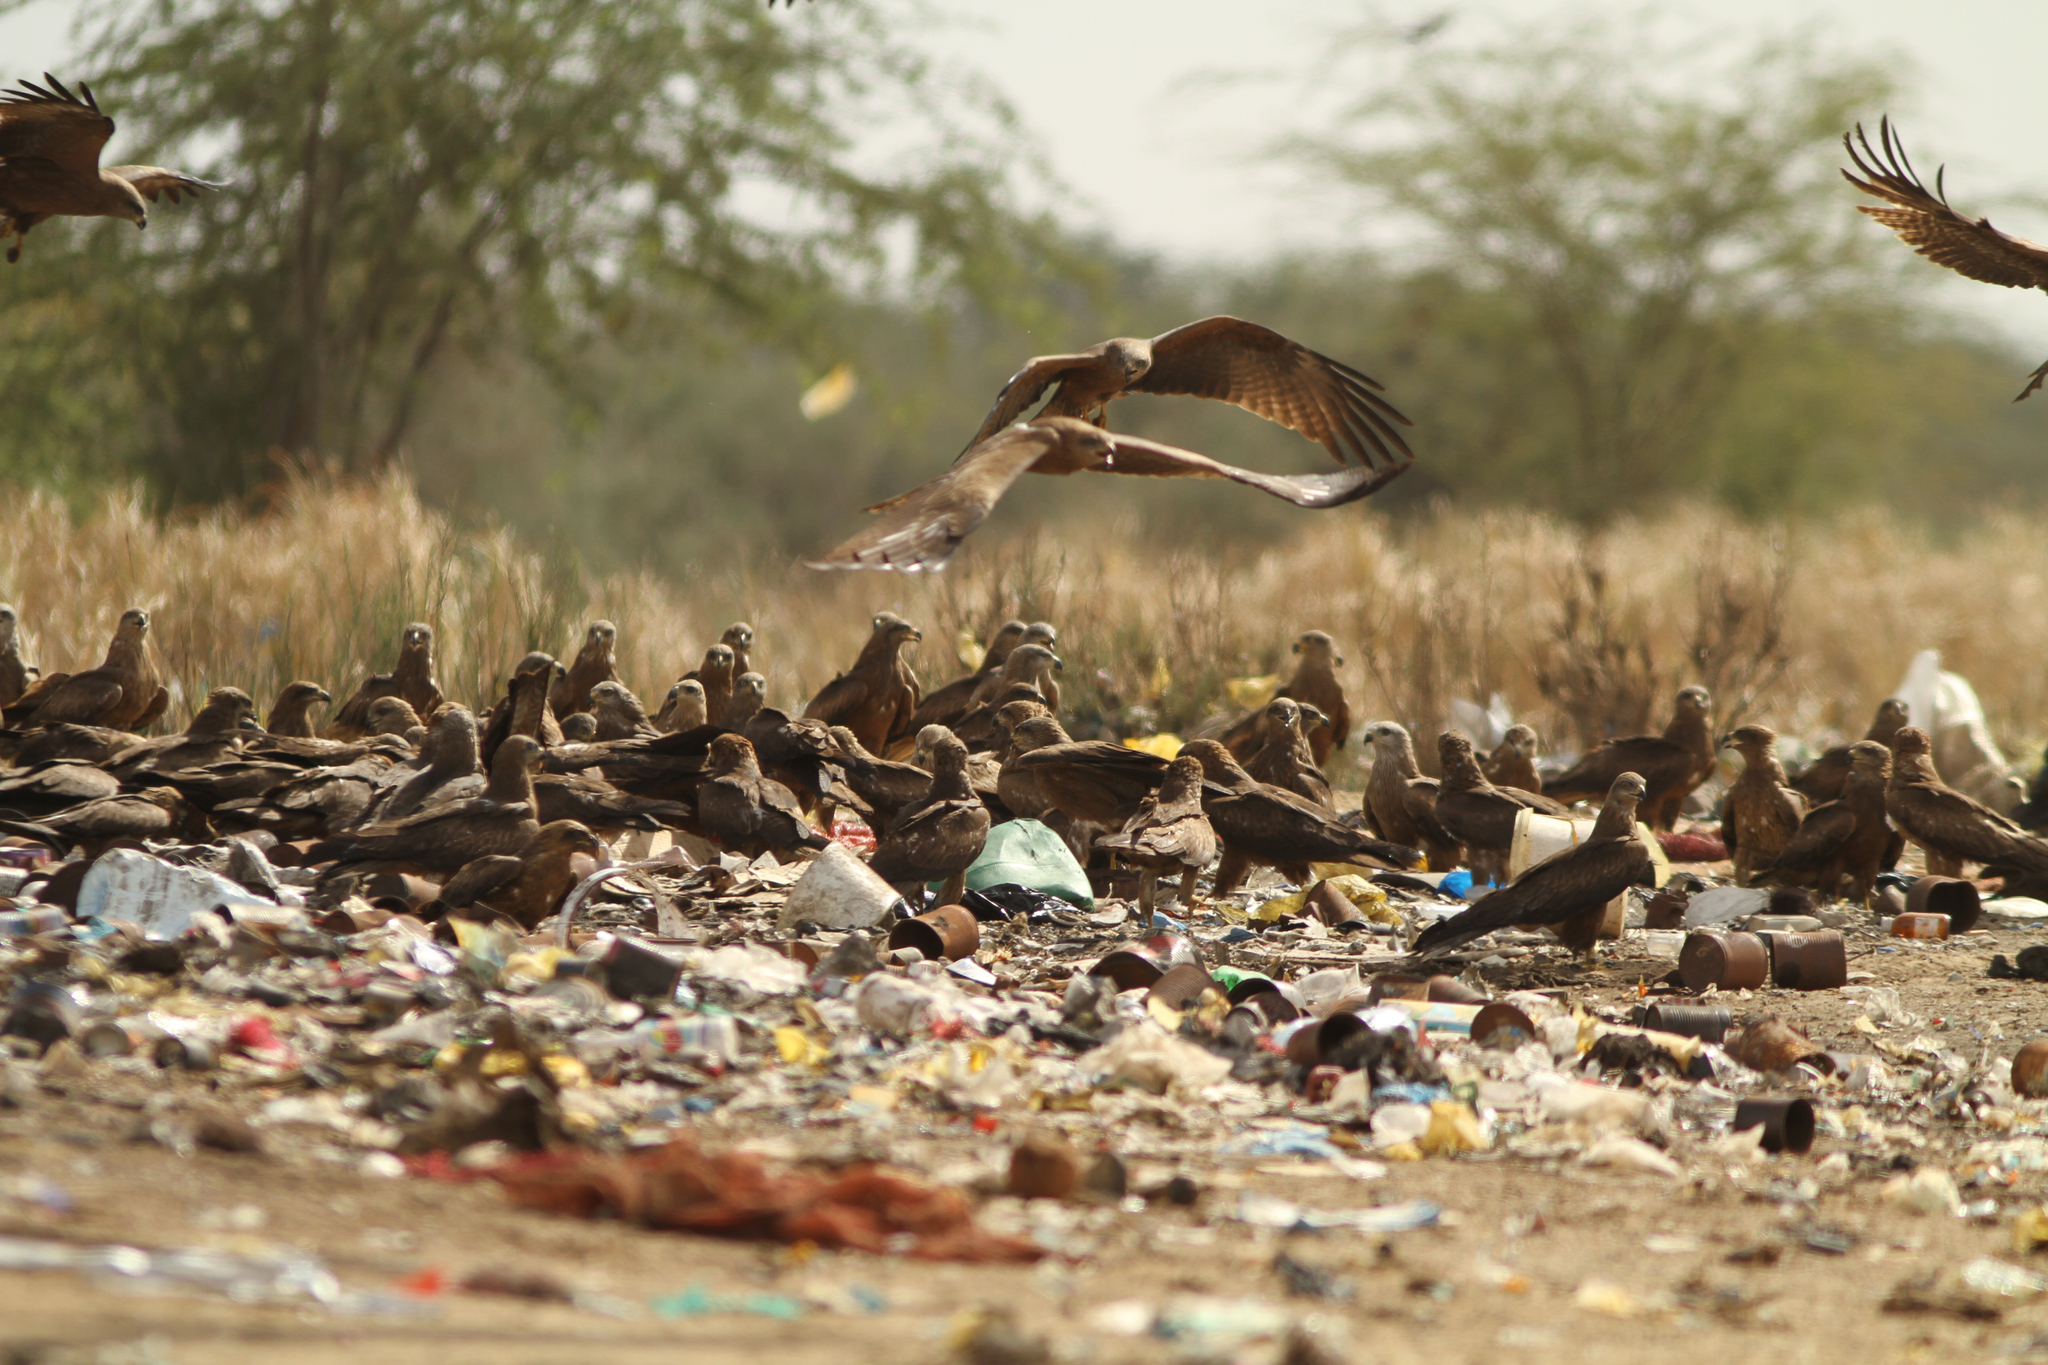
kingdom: Animalia
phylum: Chordata
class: Aves
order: Accipitriformes
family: Accipitridae
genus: Milvus
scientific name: Milvus migrans
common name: Black kite
